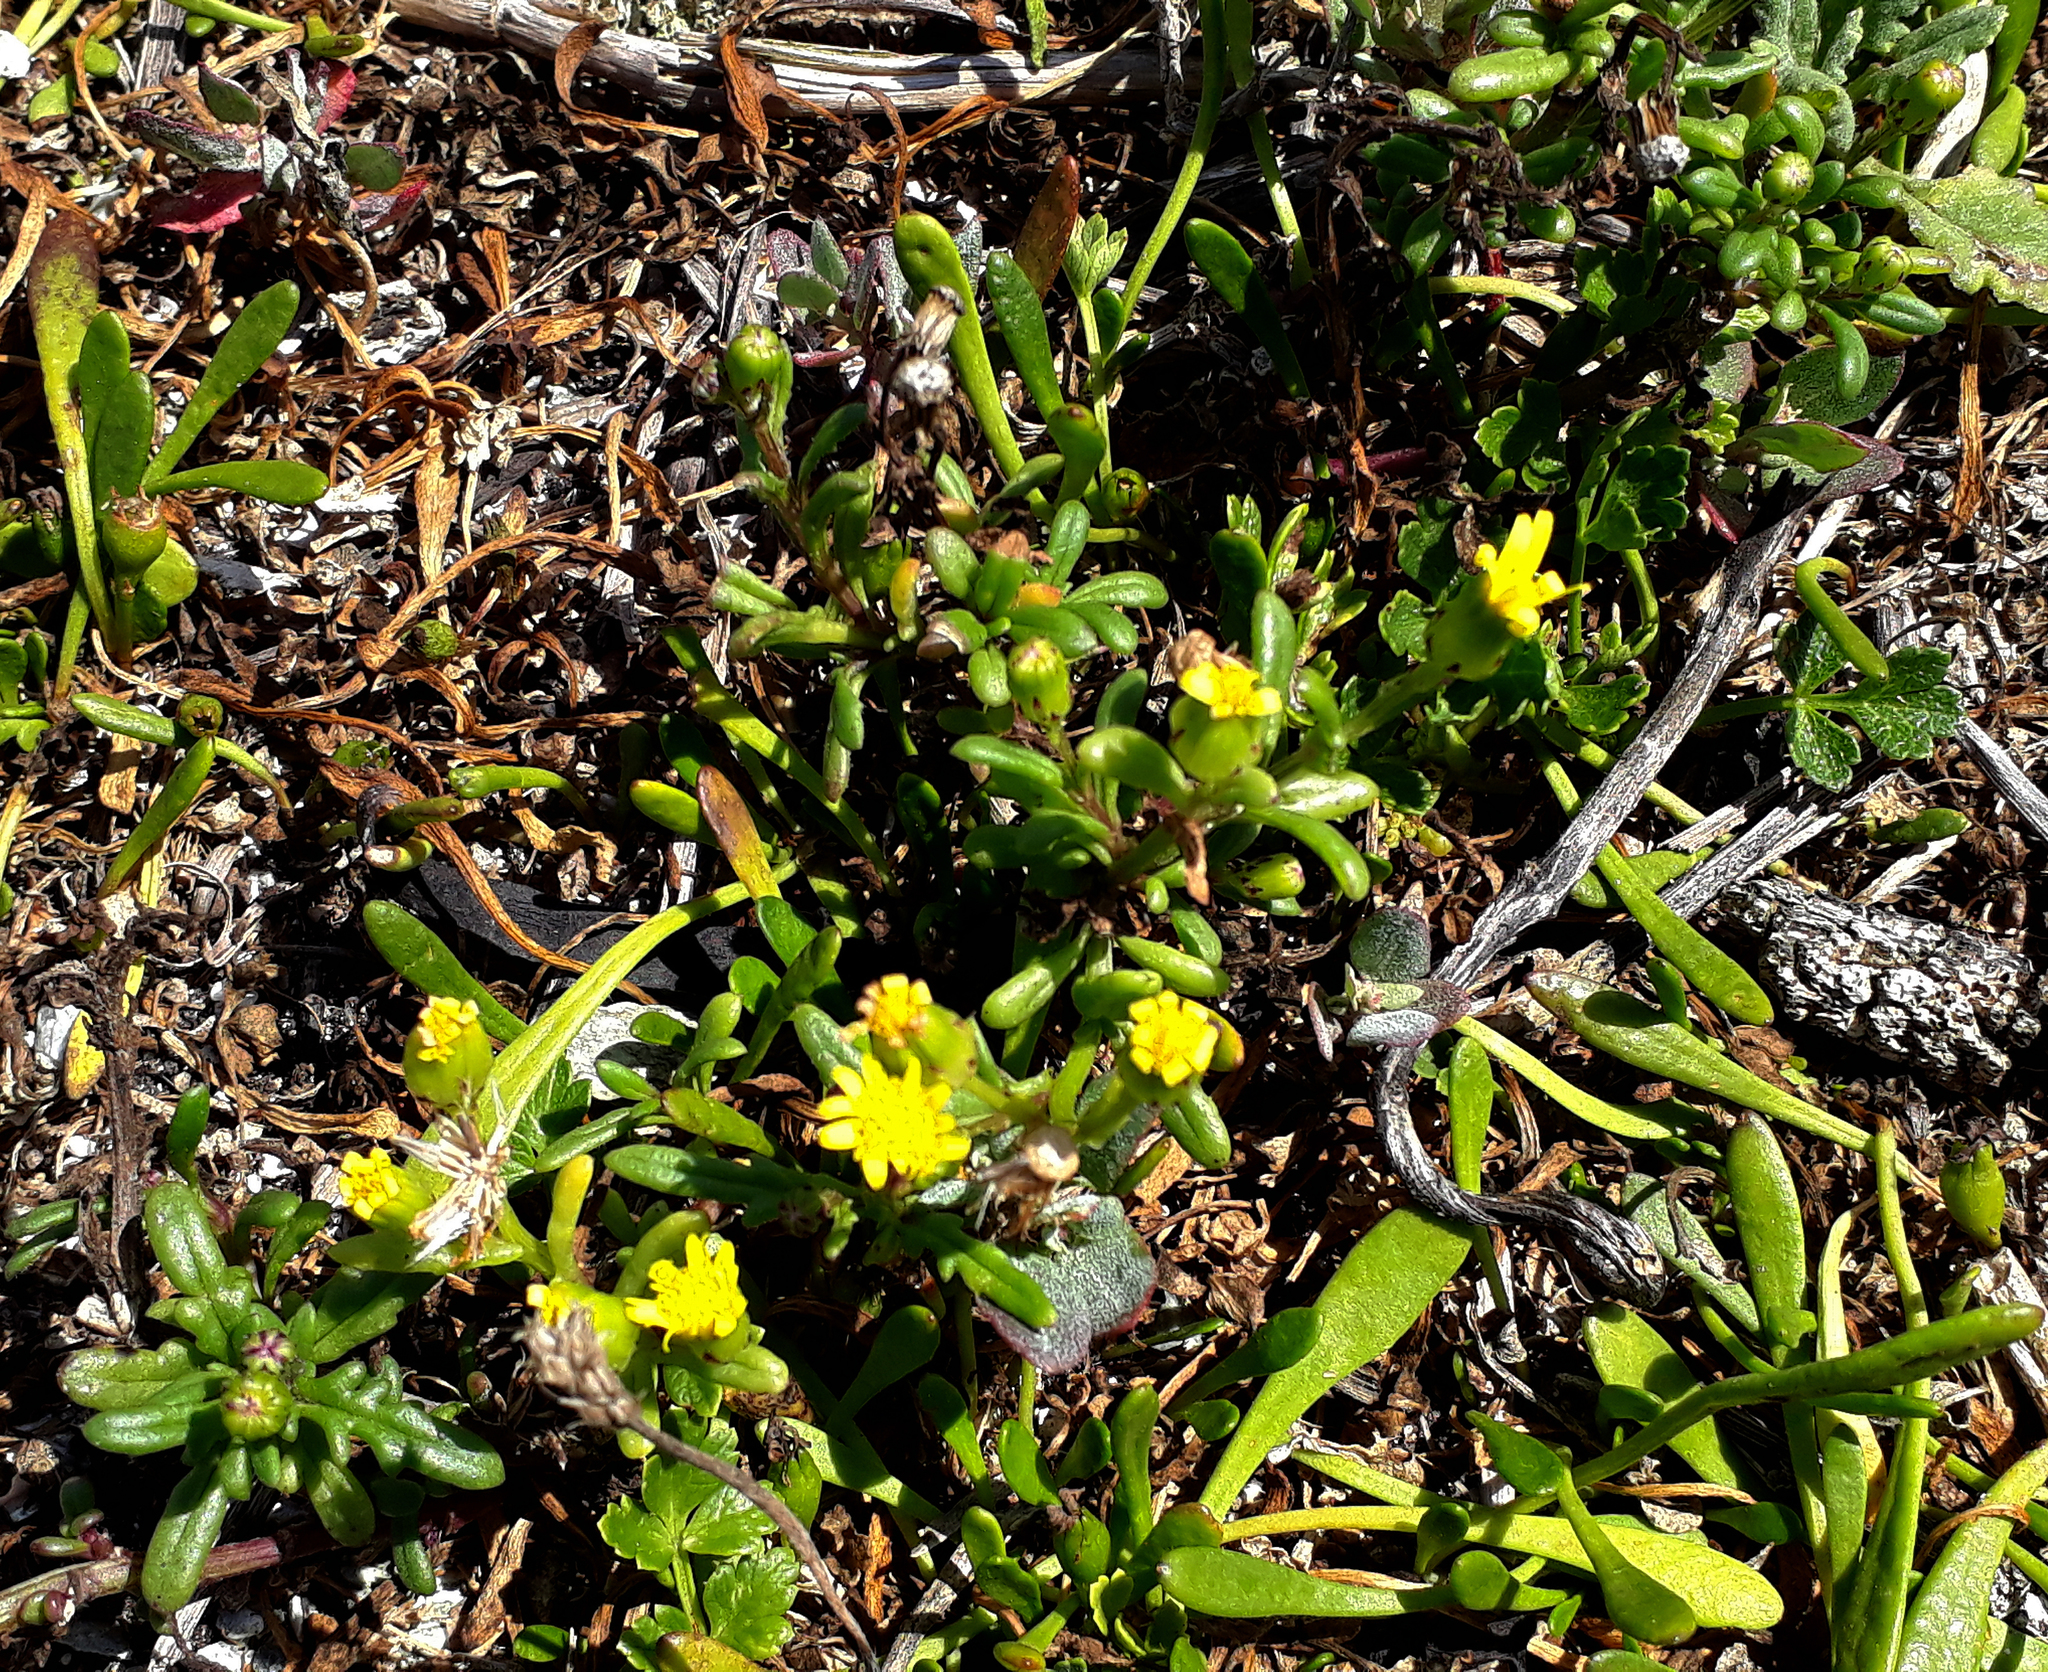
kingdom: Plantae
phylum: Tracheophyta
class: Magnoliopsida
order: Asterales
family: Asteraceae
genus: Senecio
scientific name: Senecio lautus
